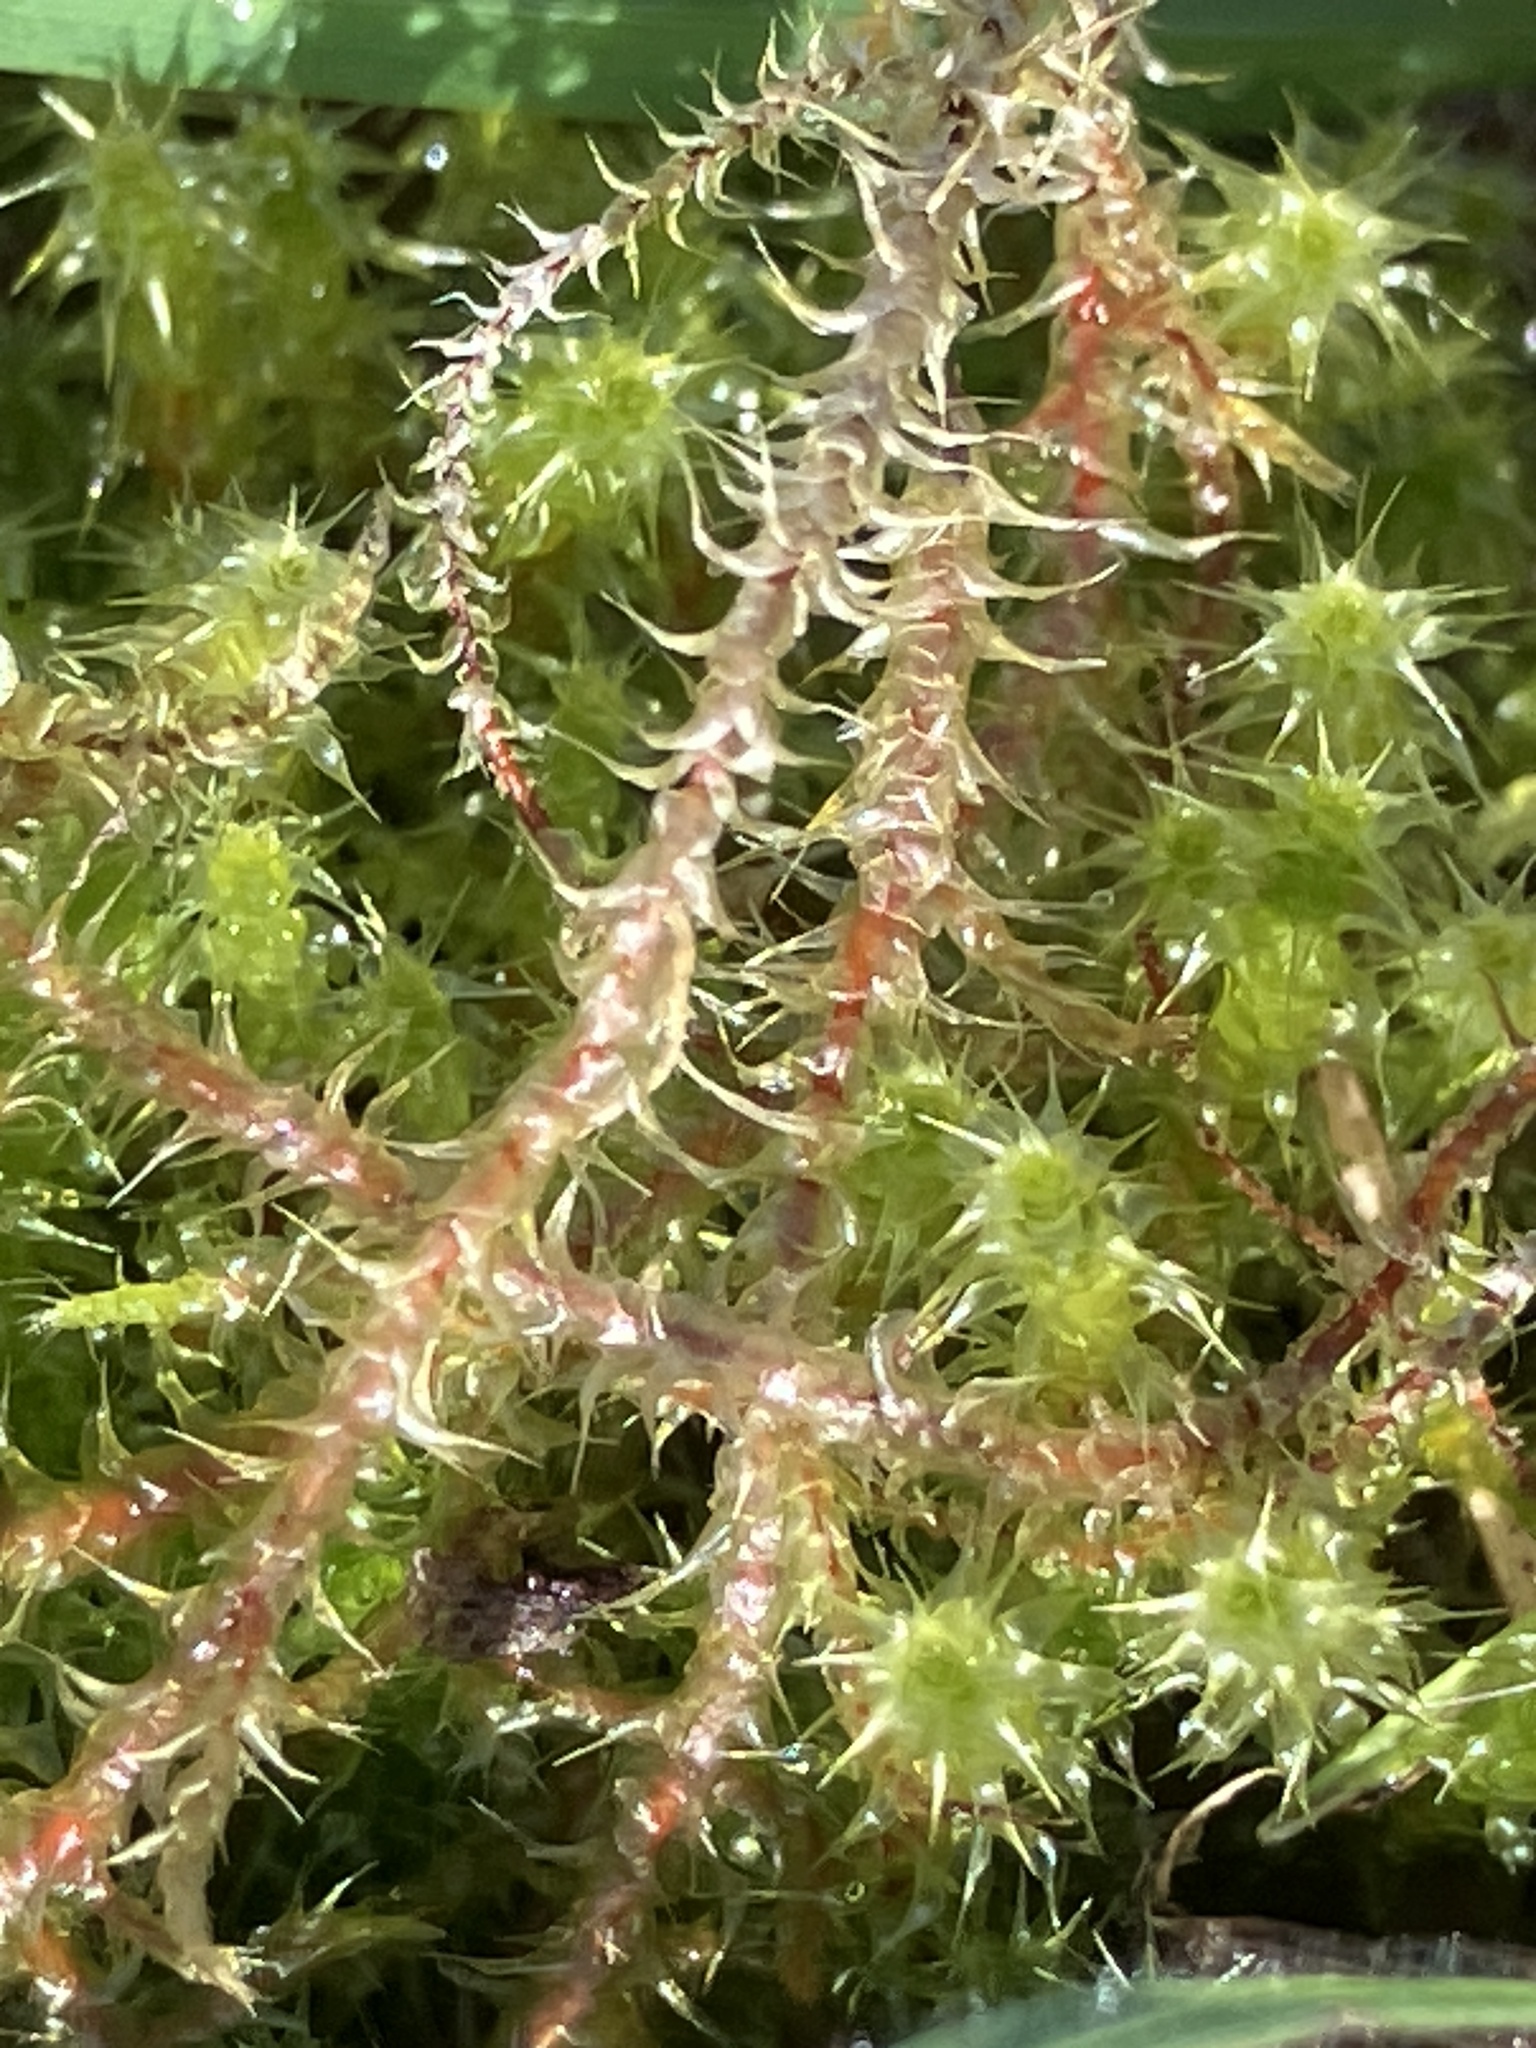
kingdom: Plantae
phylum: Bryophyta
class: Bryopsida
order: Hypnales
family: Hylocomiaceae
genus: Rhytidiadelphus
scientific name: Rhytidiadelphus squarrosus
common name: Springy turf-moss
